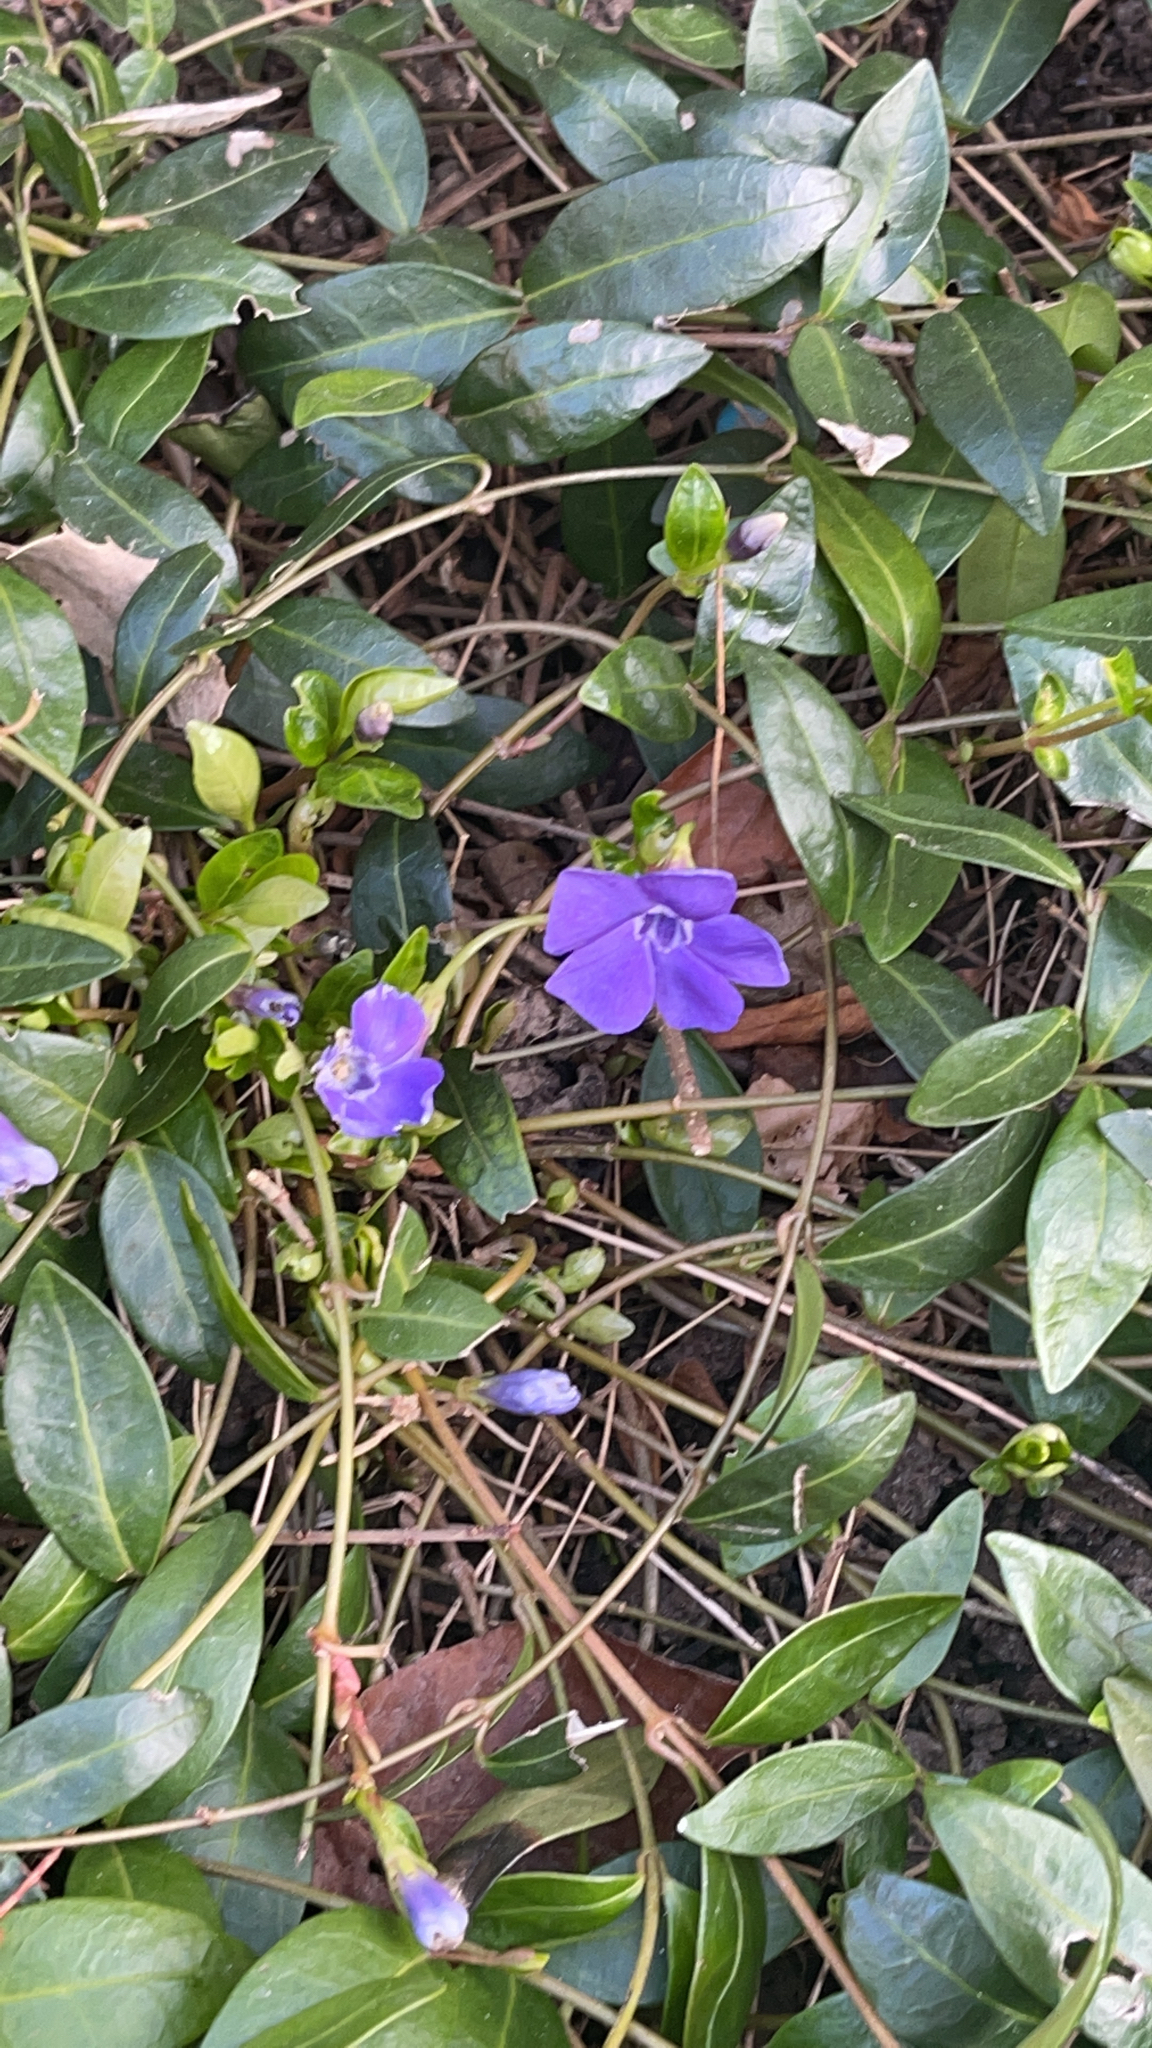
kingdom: Plantae
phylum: Tracheophyta
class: Magnoliopsida
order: Gentianales
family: Apocynaceae
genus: Vinca
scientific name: Vinca minor
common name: Lesser periwinkle
